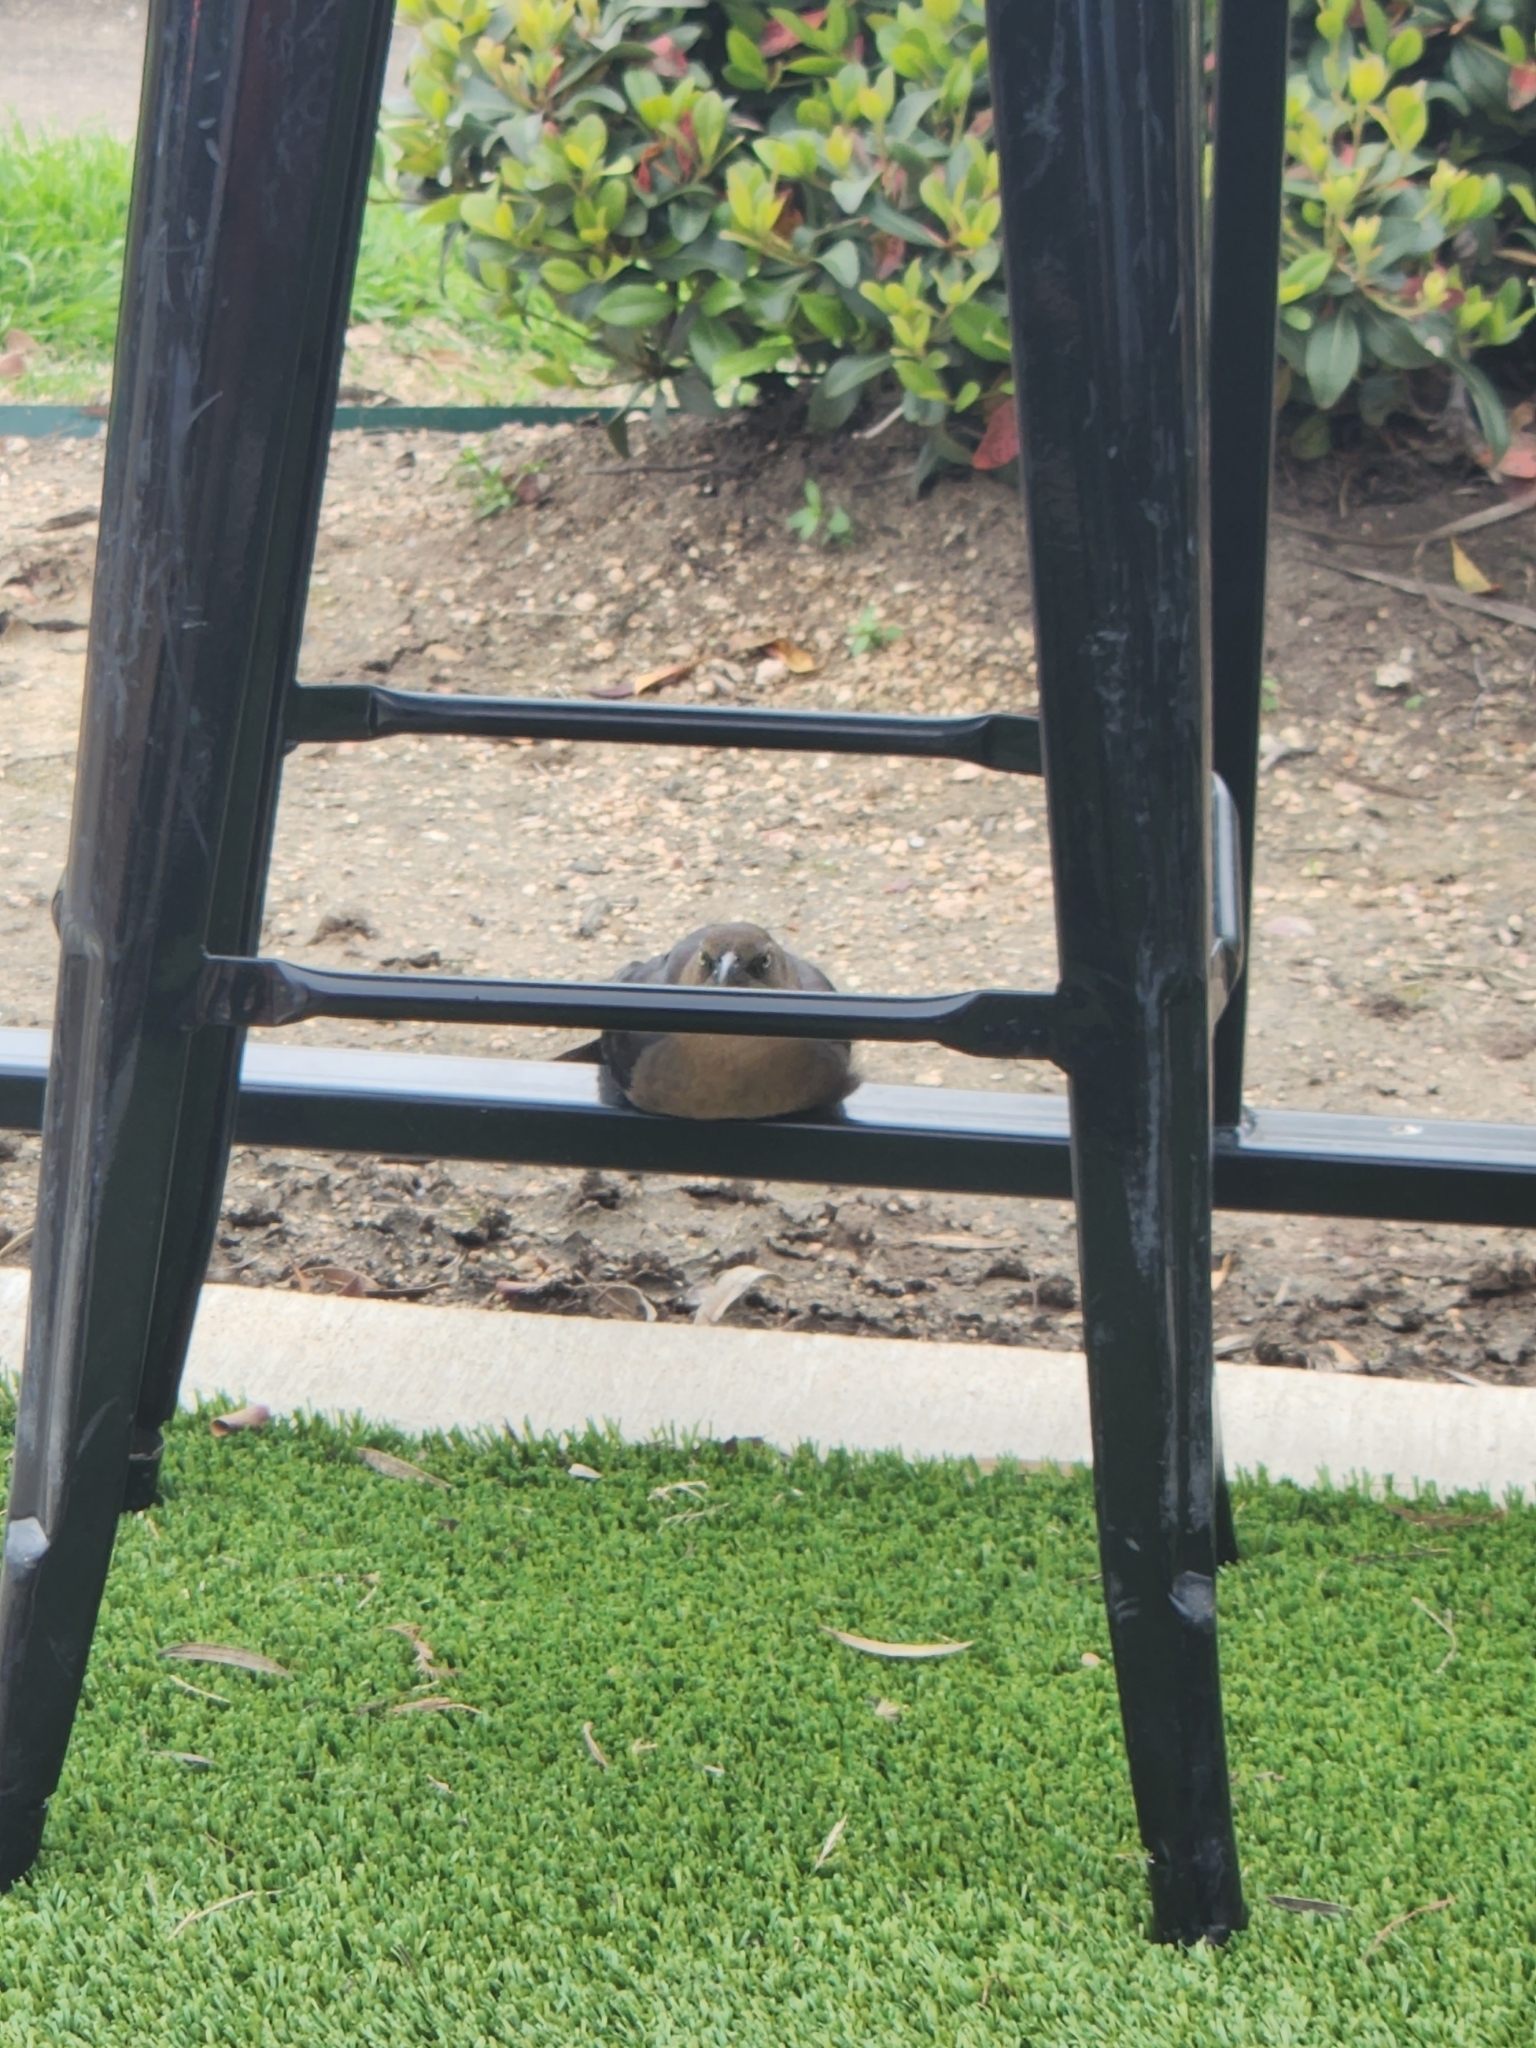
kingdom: Animalia
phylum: Chordata
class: Aves
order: Passeriformes
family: Icteridae
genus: Quiscalus
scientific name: Quiscalus mexicanus
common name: Great-tailed grackle
